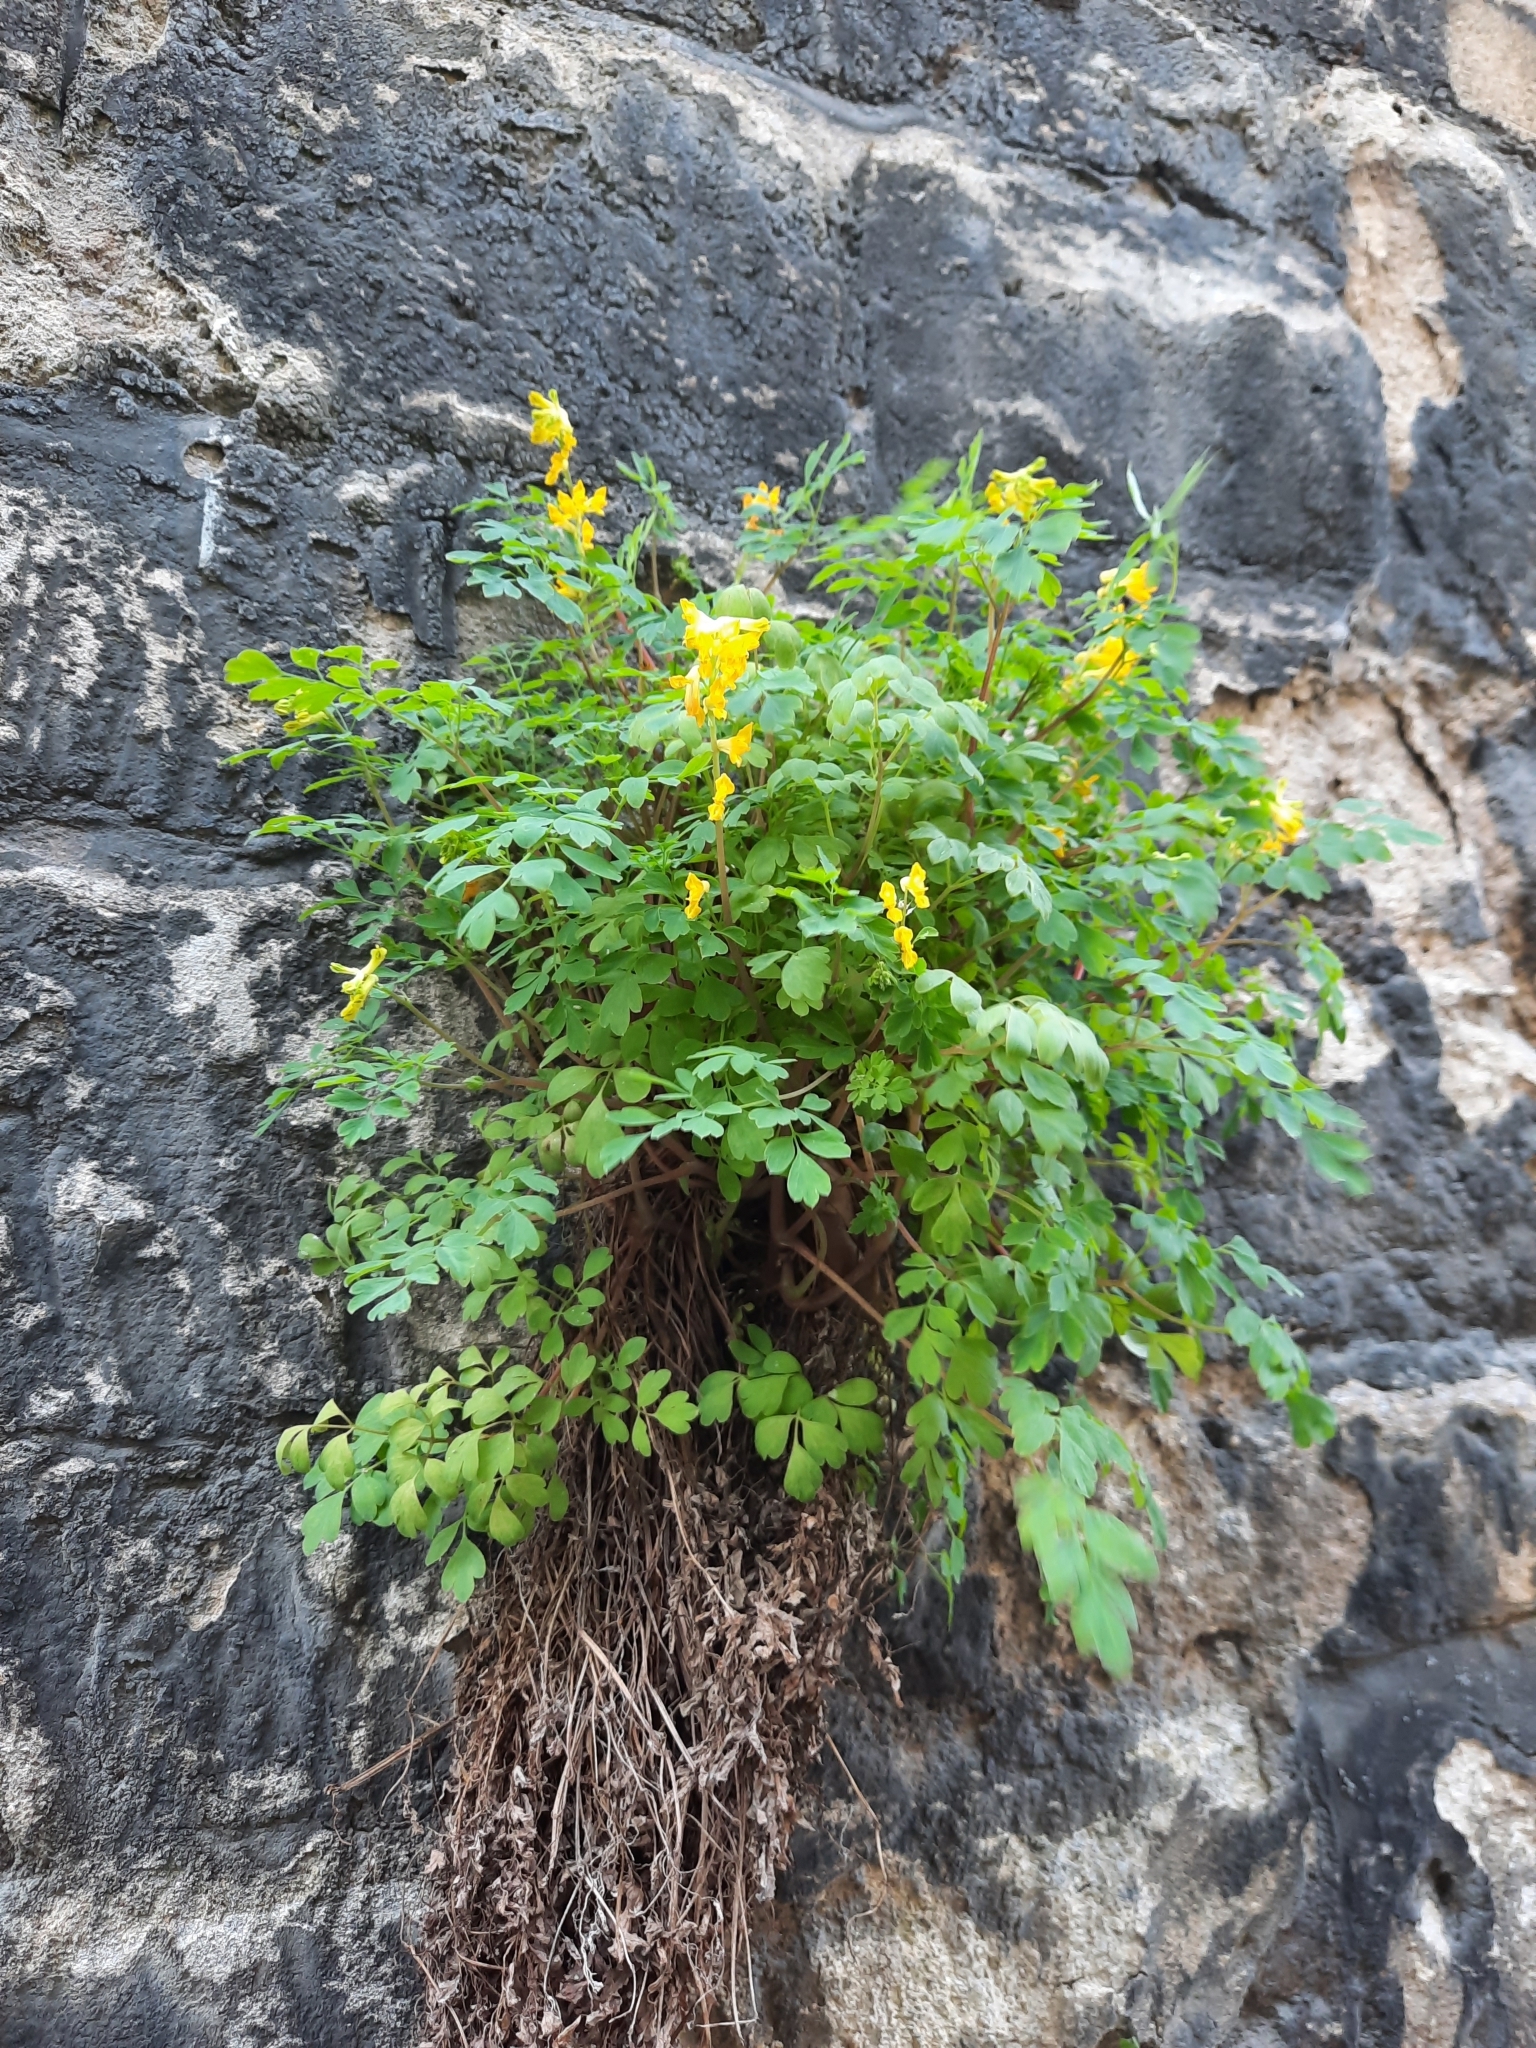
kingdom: Plantae
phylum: Tracheophyta
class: Magnoliopsida
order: Ranunculales
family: Papaveraceae
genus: Pseudofumaria
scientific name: Pseudofumaria lutea
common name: Yellow corydalis
